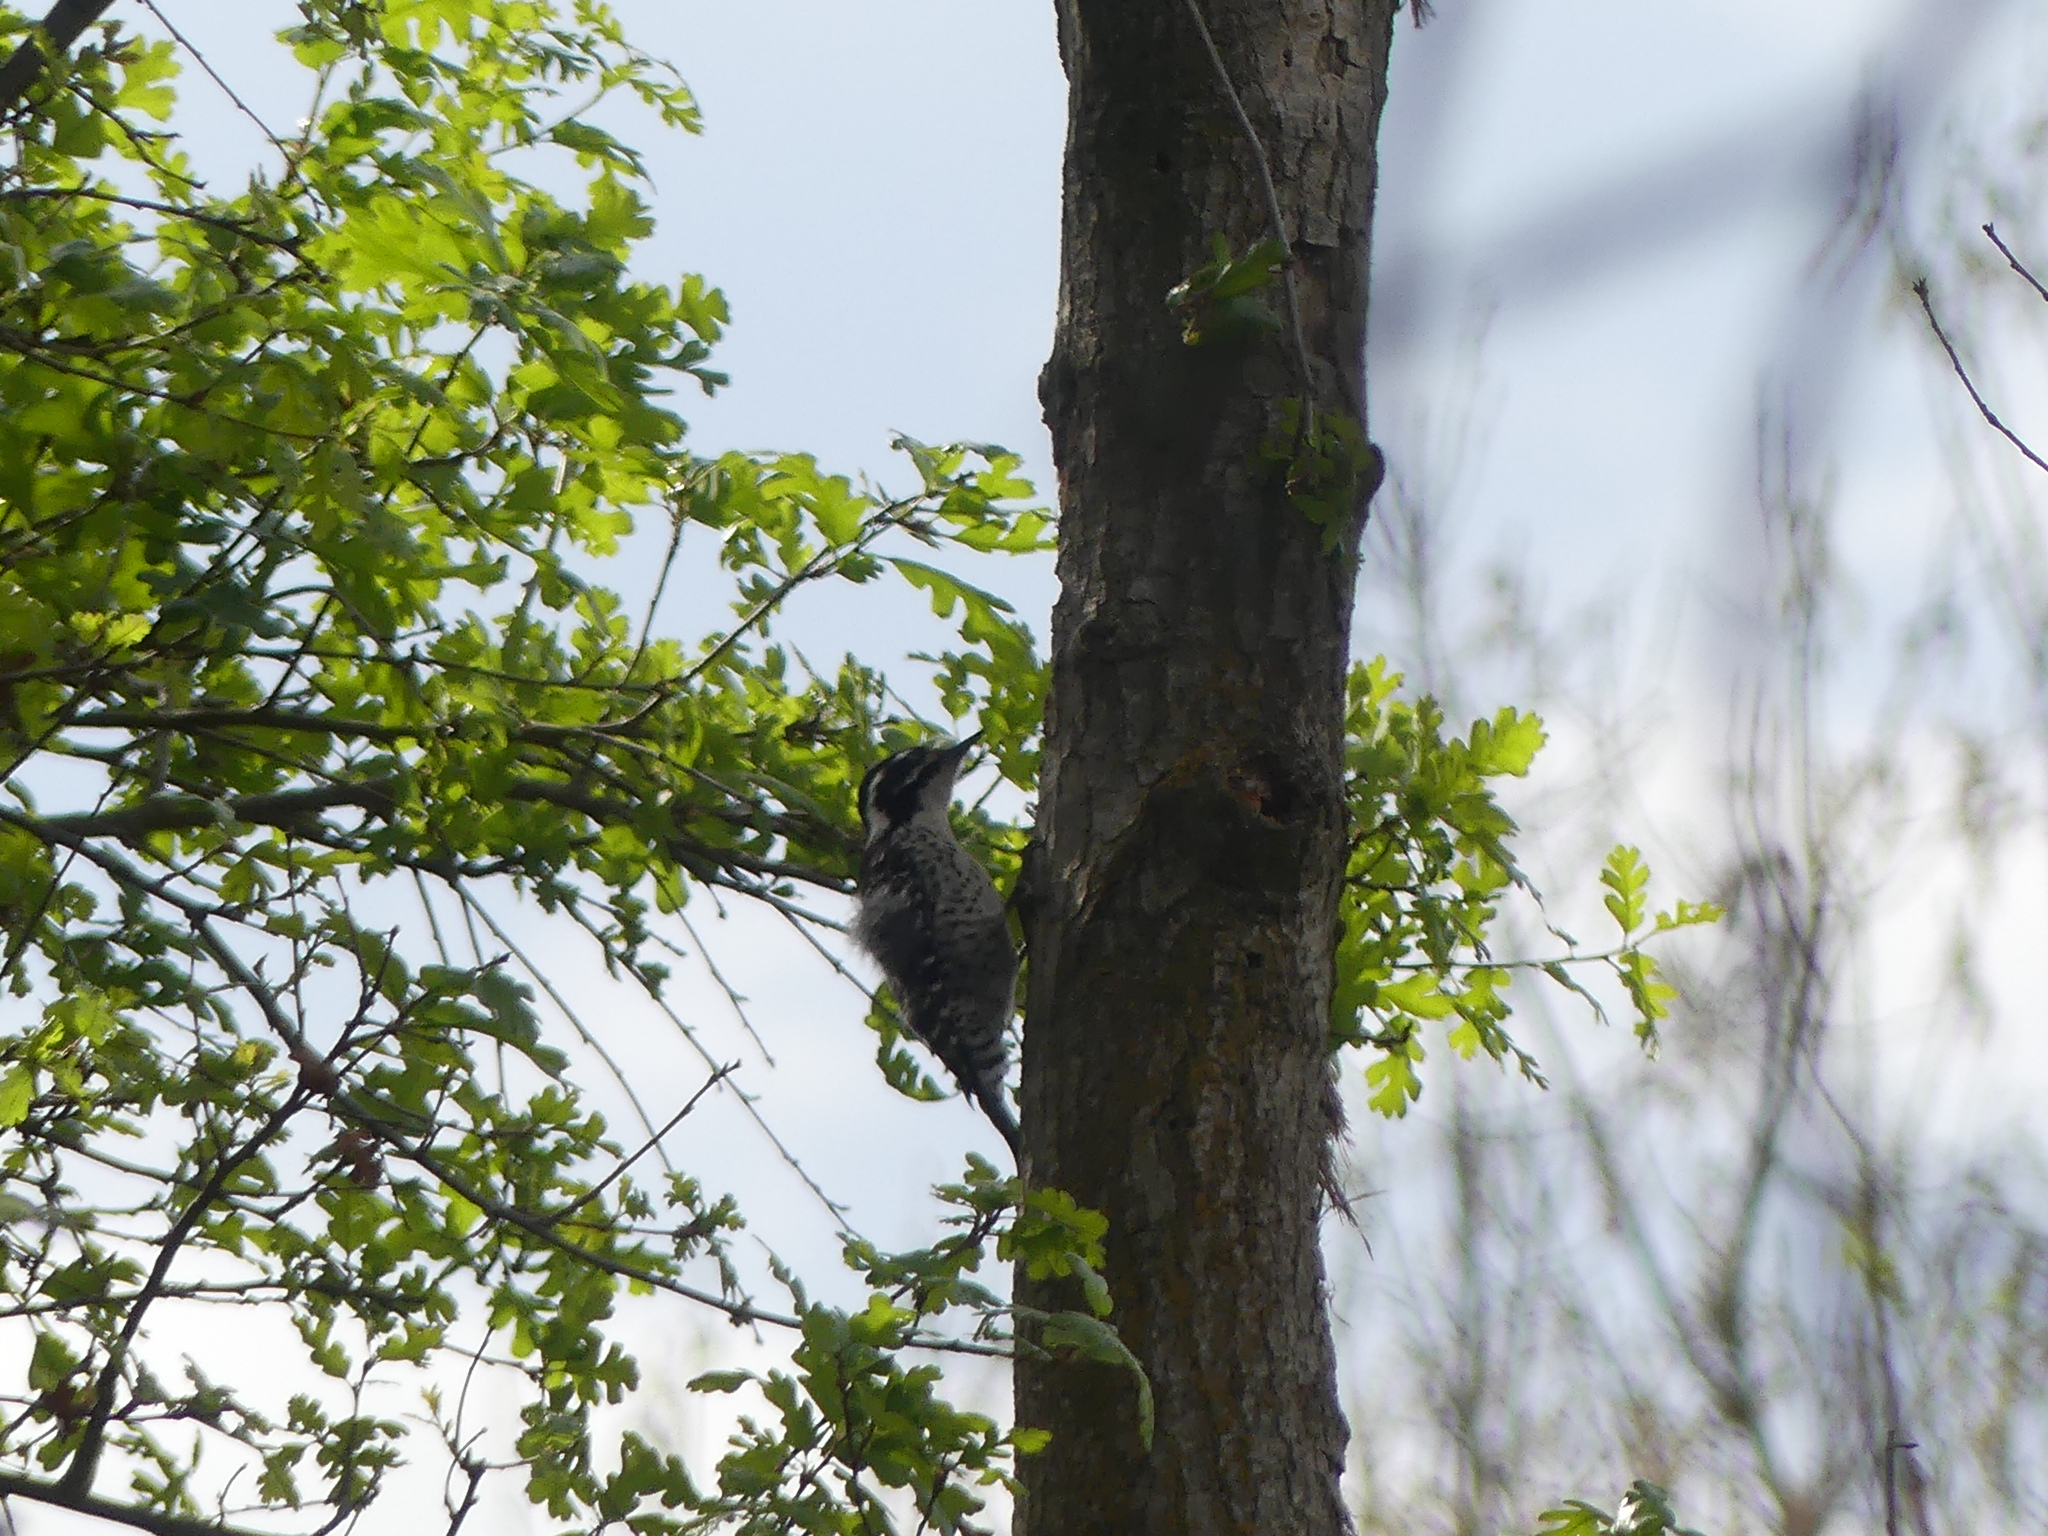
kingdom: Animalia
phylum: Chordata
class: Aves
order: Piciformes
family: Picidae
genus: Dryobates
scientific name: Dryobates nuttallii
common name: Nuttall's woodpecker
